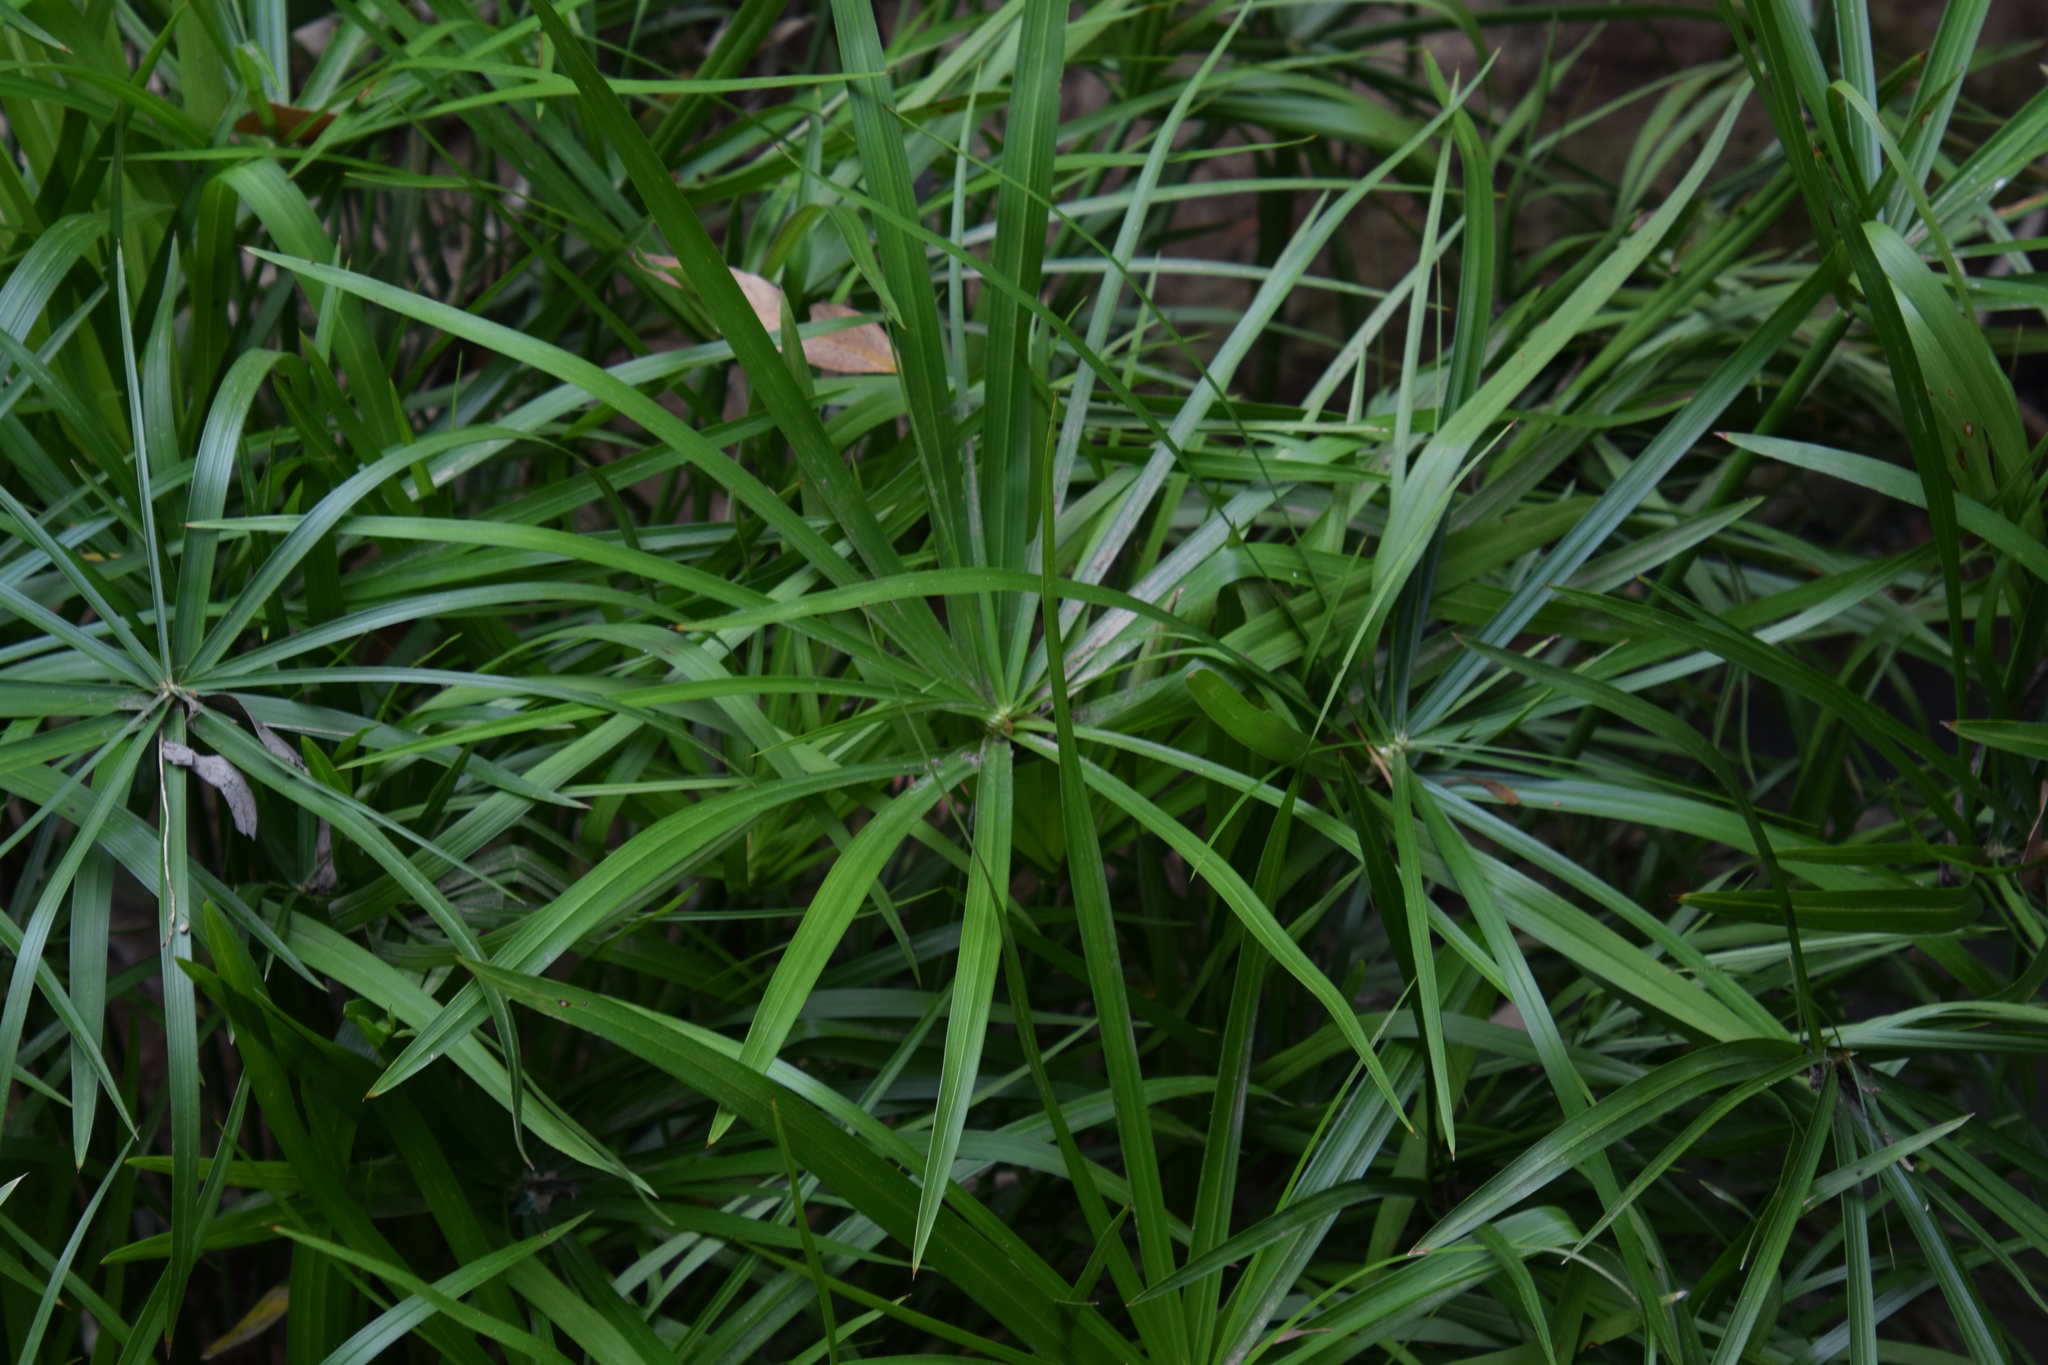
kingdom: Plantae
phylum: Tracheophyta
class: Liliopsida
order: Poales
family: Cyperaceae
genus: Cyperus
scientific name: Cyperus alternifolius
